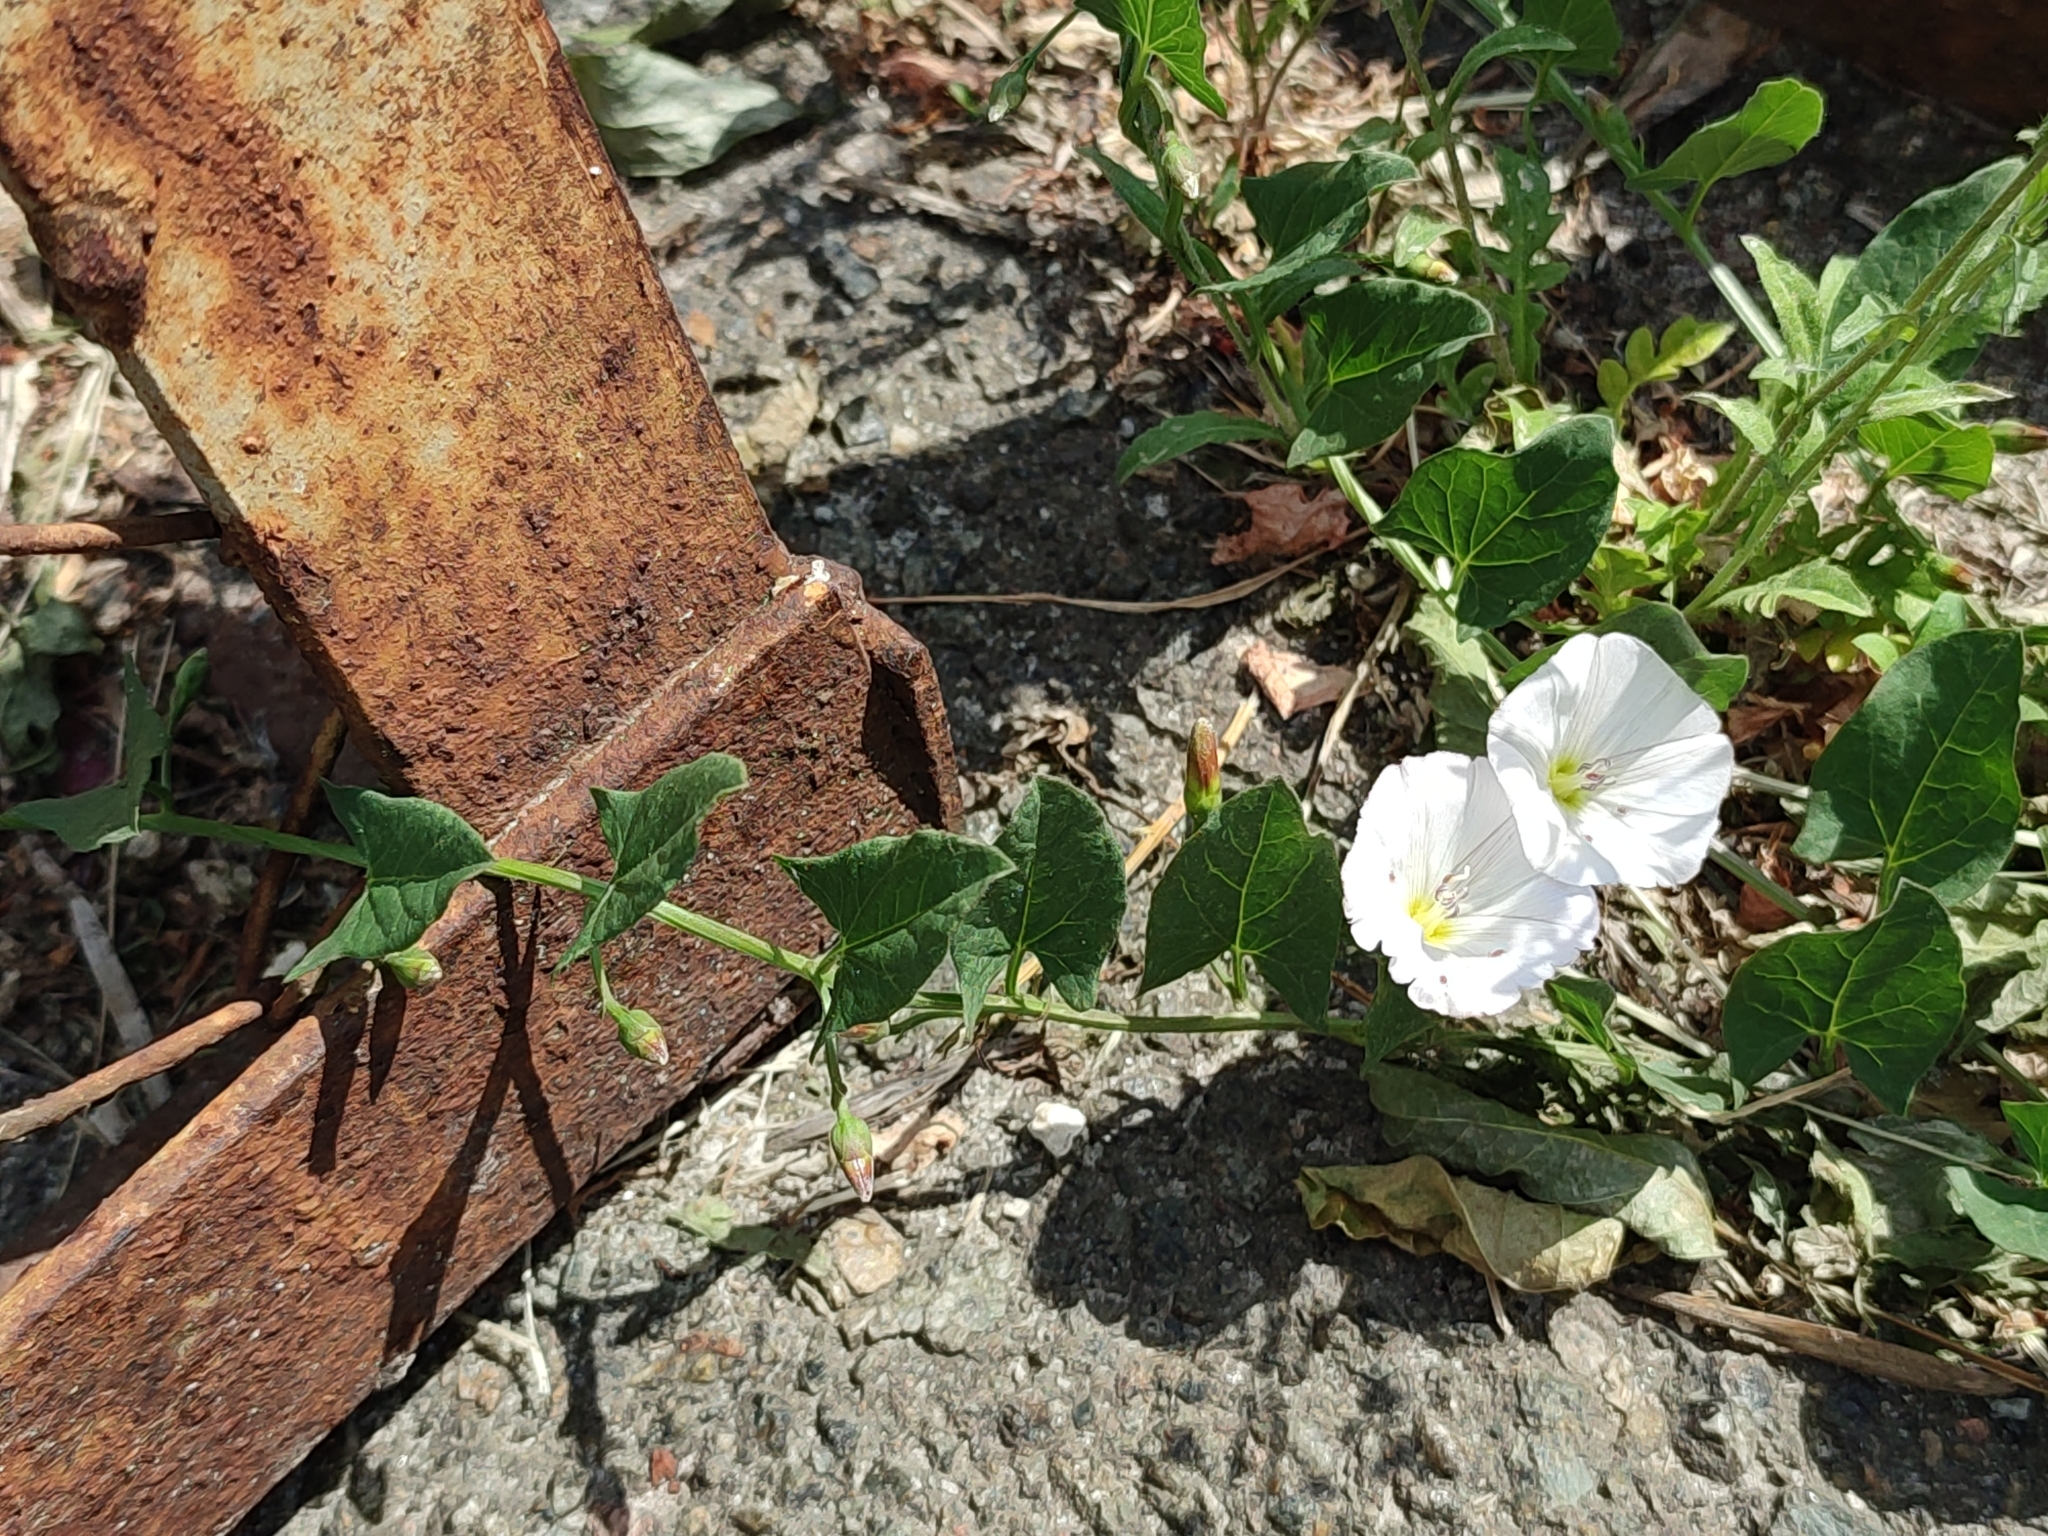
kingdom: Plantae
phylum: Tracheophyta
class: Magnoliopsida
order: Solanales
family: Convolvulaceae
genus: Convolvulus
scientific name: Convolvulus arvensis
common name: Field bindweed
